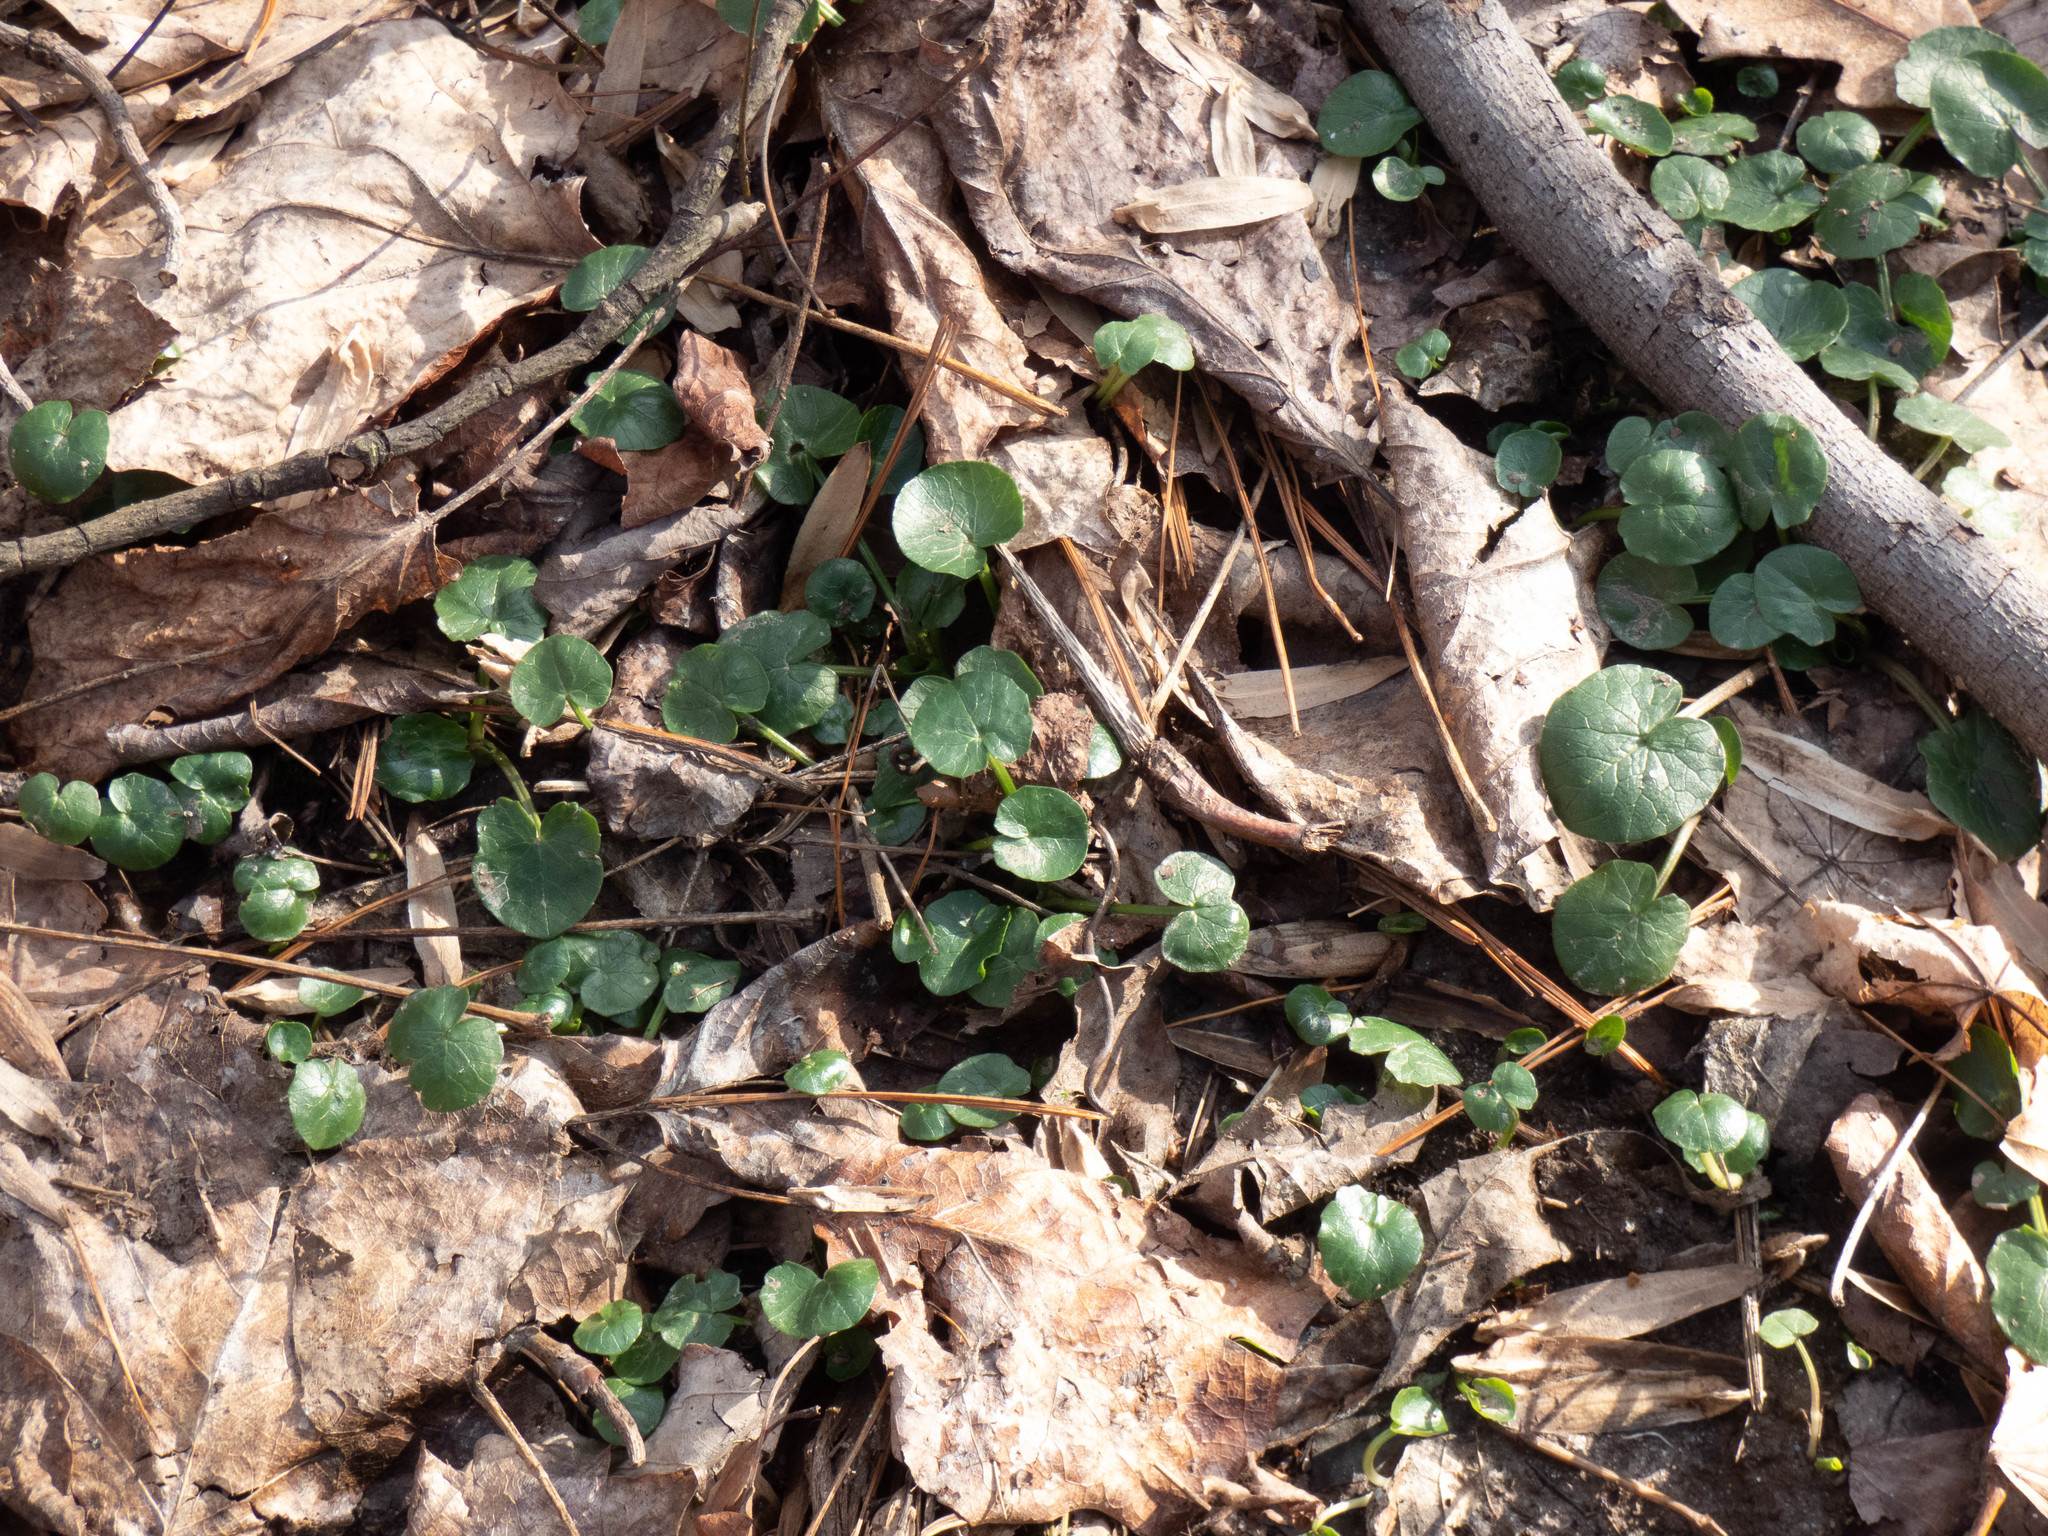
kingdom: Plantae
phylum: Tracheophyta
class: Magnoliopsida
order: Ranunculales
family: Ranunculaceae
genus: Ficaria
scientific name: Ficaria verna
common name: Lesser celandine
